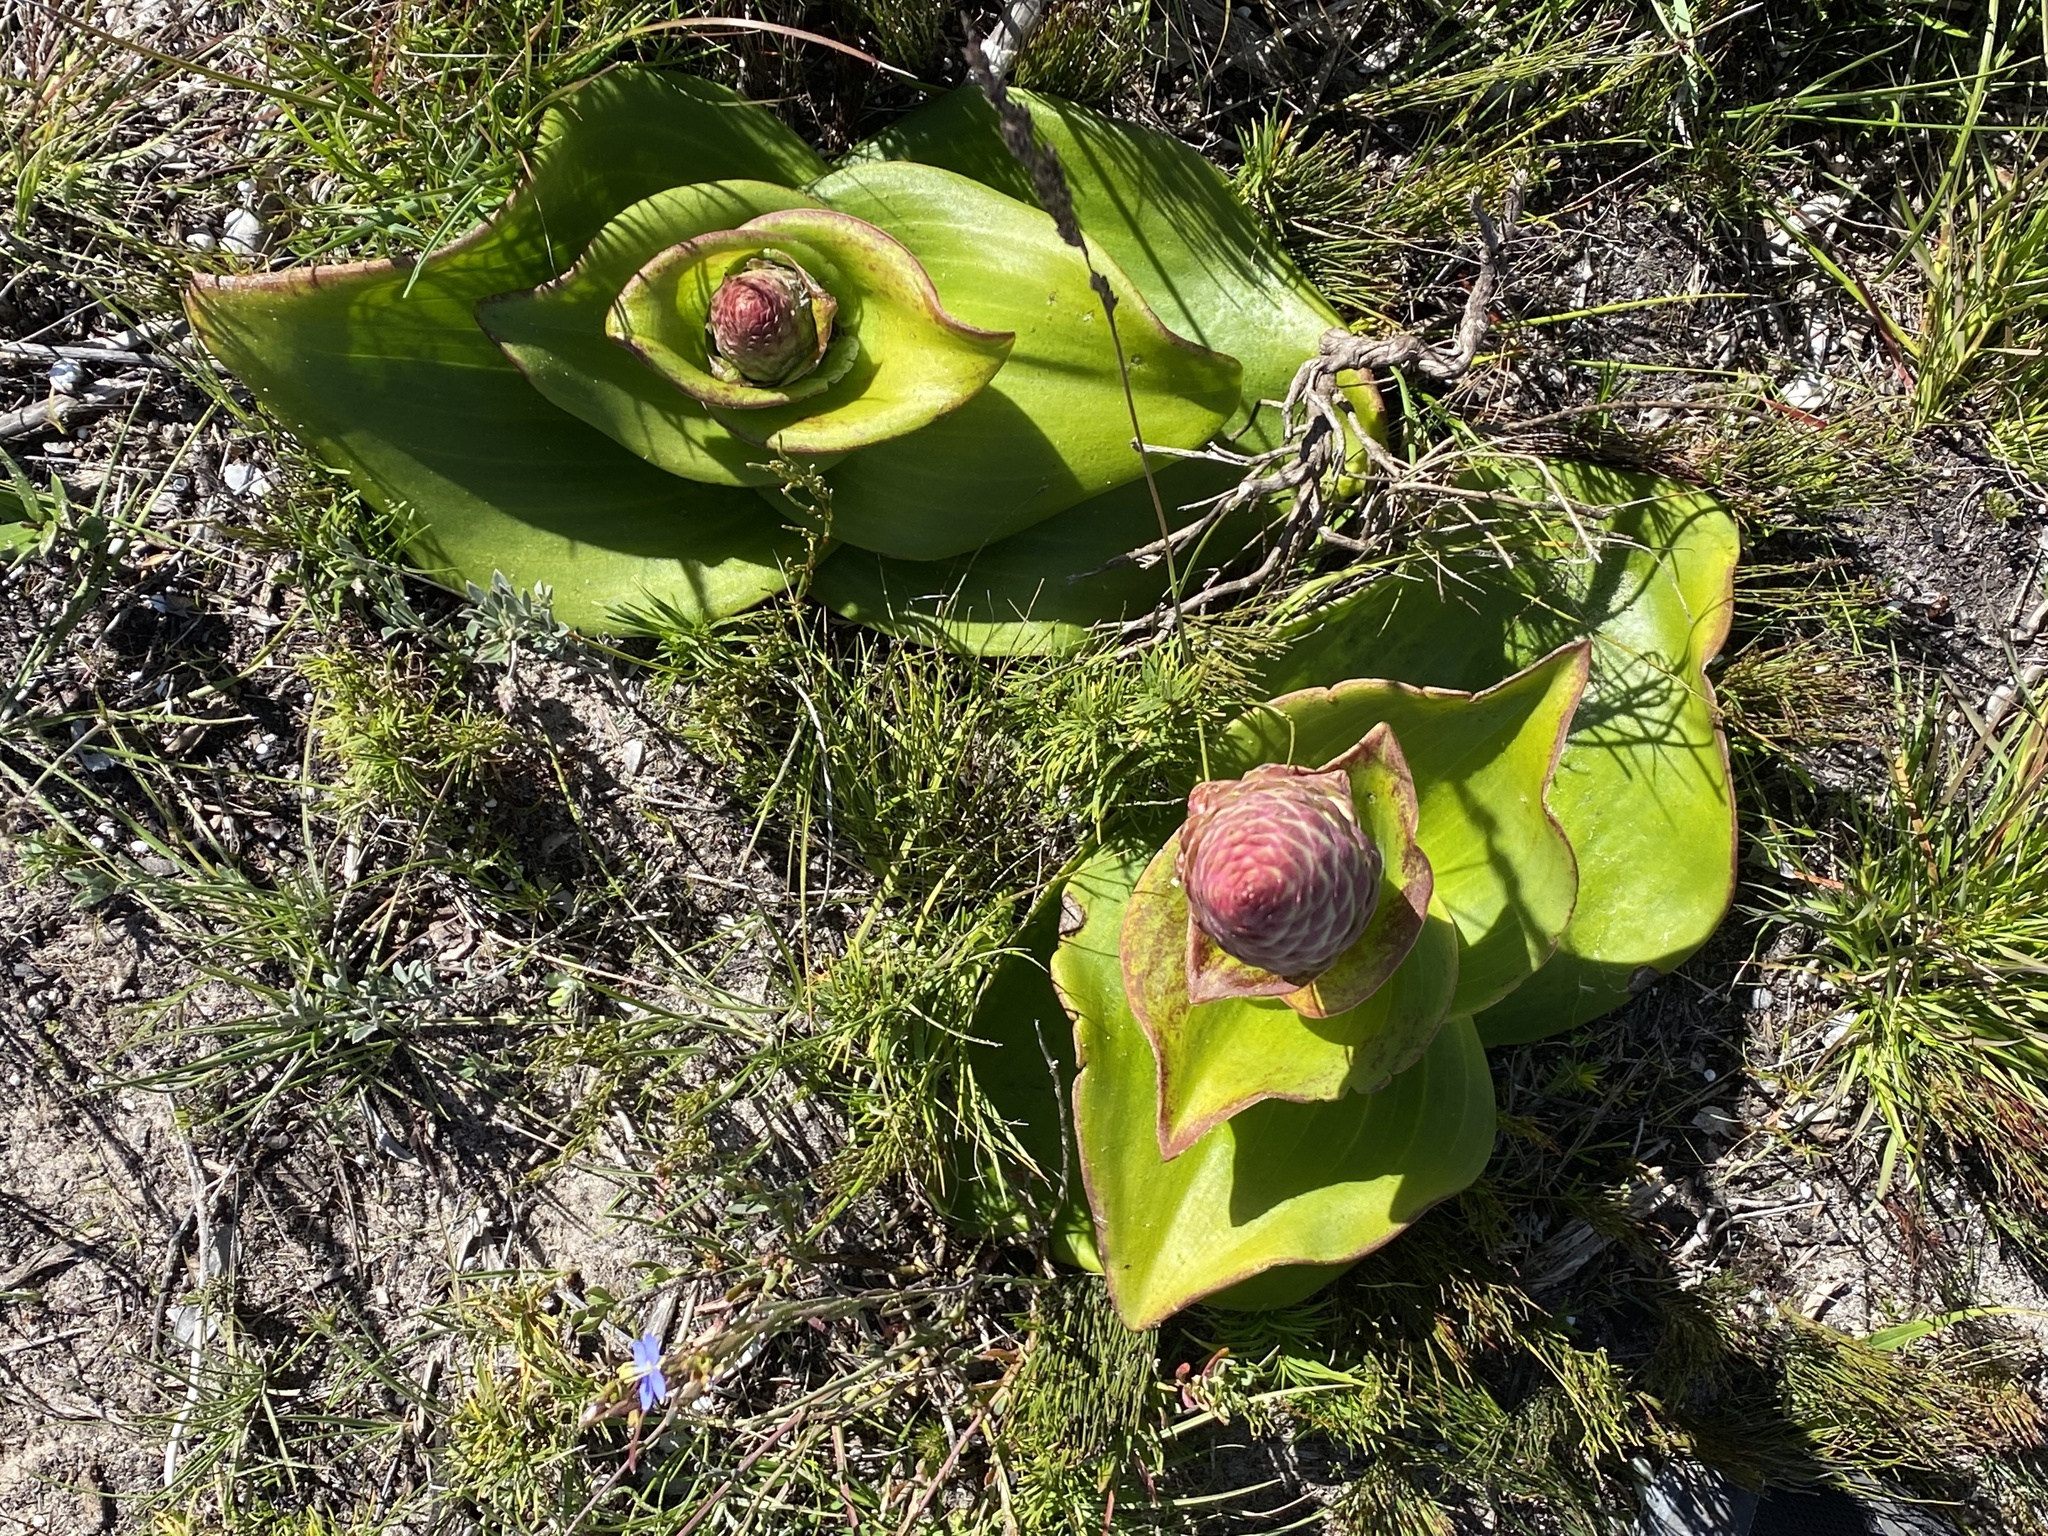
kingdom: Plantae
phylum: Tracheophyta
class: Liliopsida
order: Asparagales
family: Orchidaceae
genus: Satyrium
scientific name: Satyrium carneum
